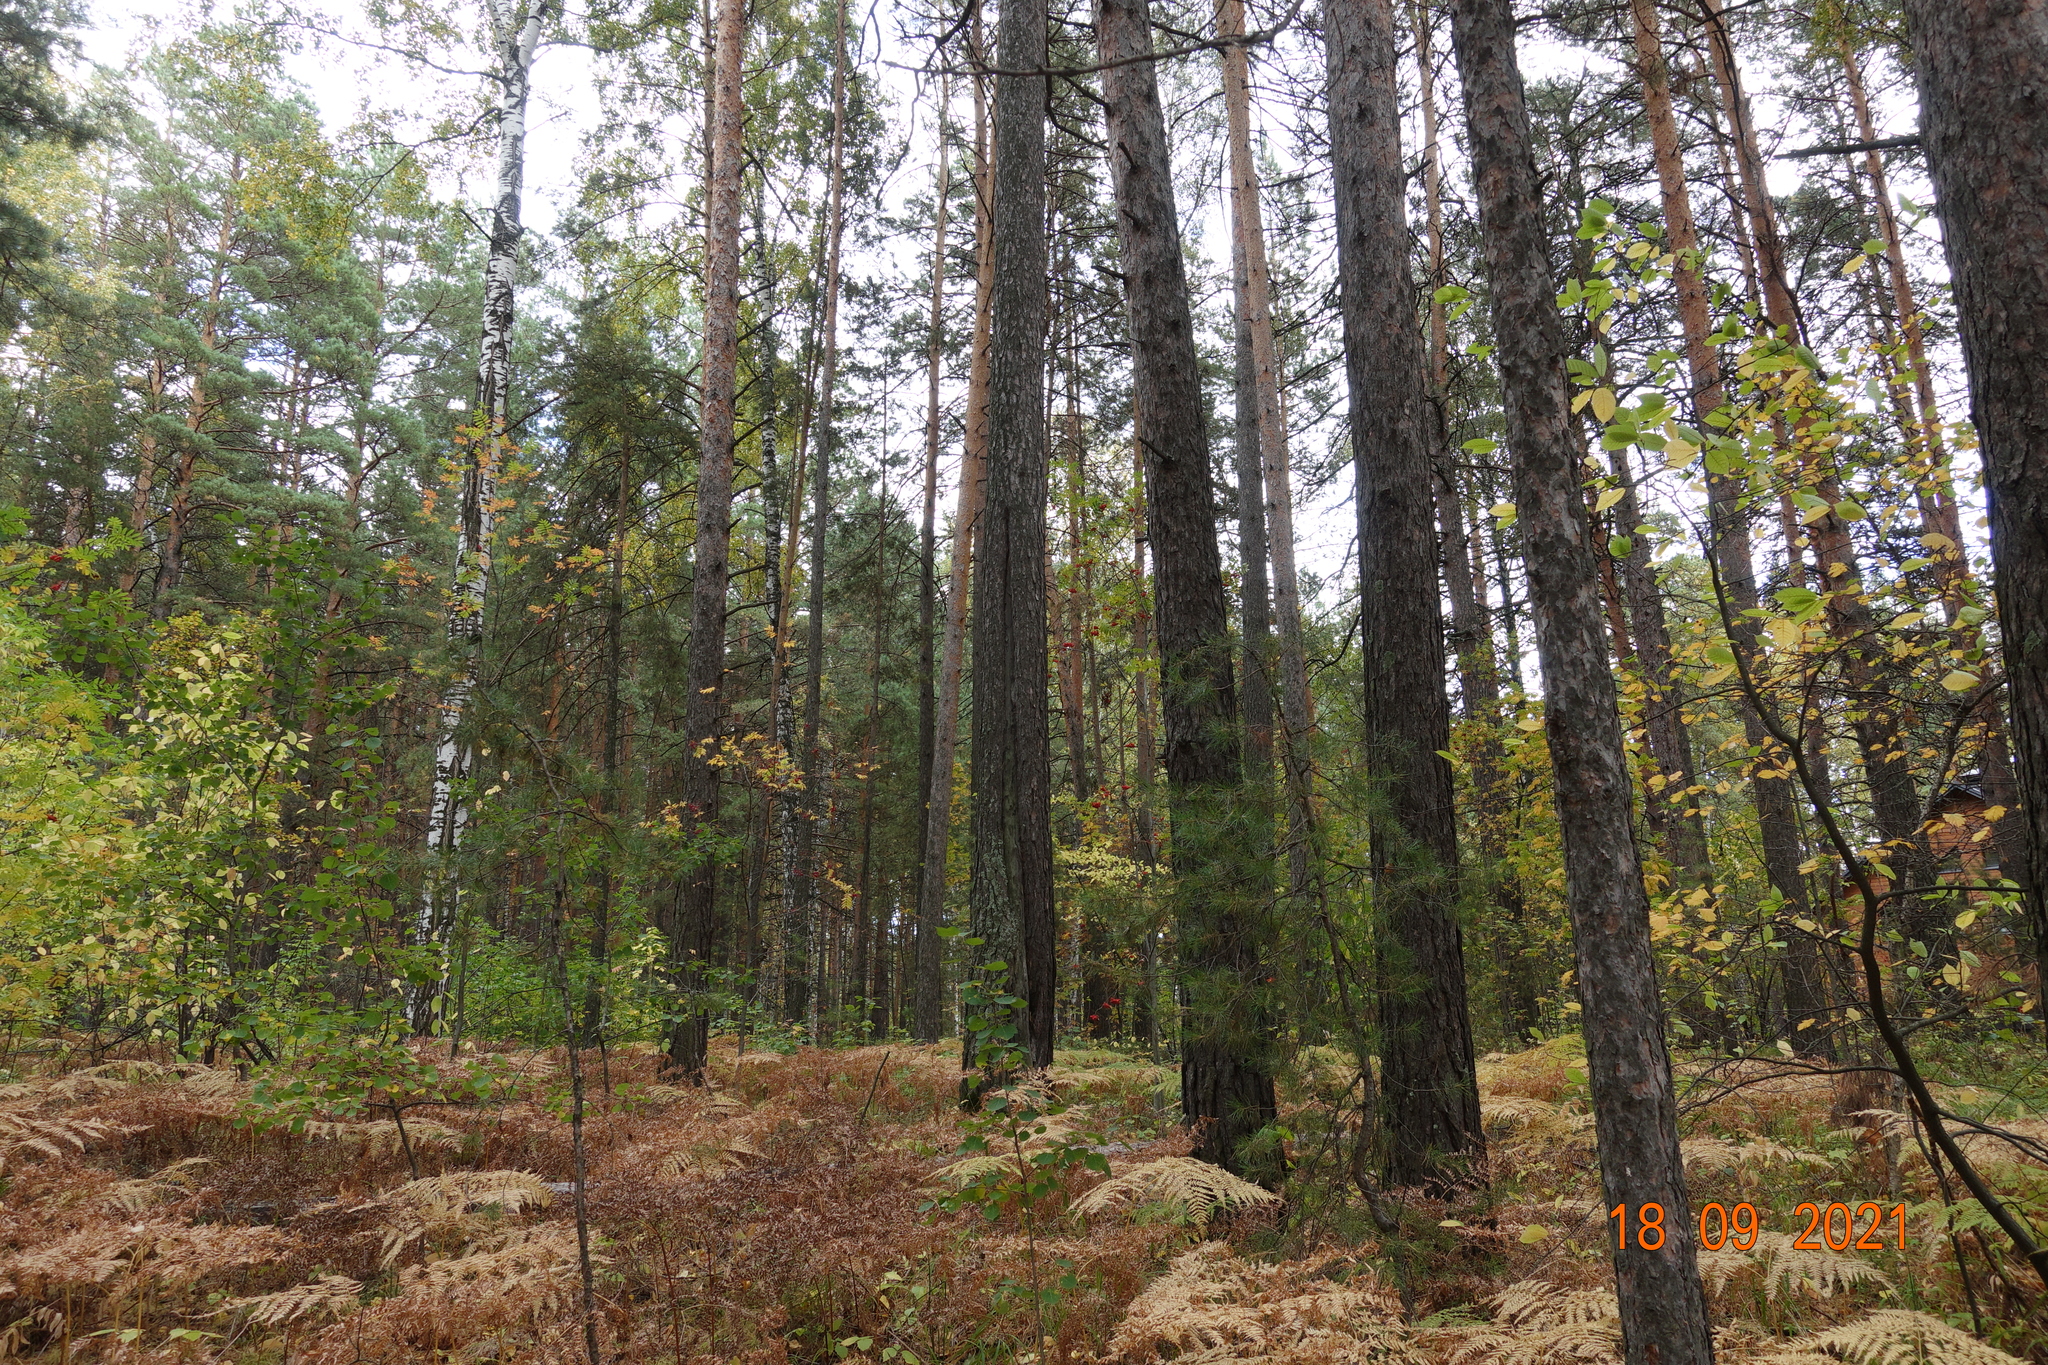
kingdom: Plantae
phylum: Tracheophyta
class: Pinopsida
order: Pinales
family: Pinaceae
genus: Pinus
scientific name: Pinus sylvestris
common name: Scots pine
